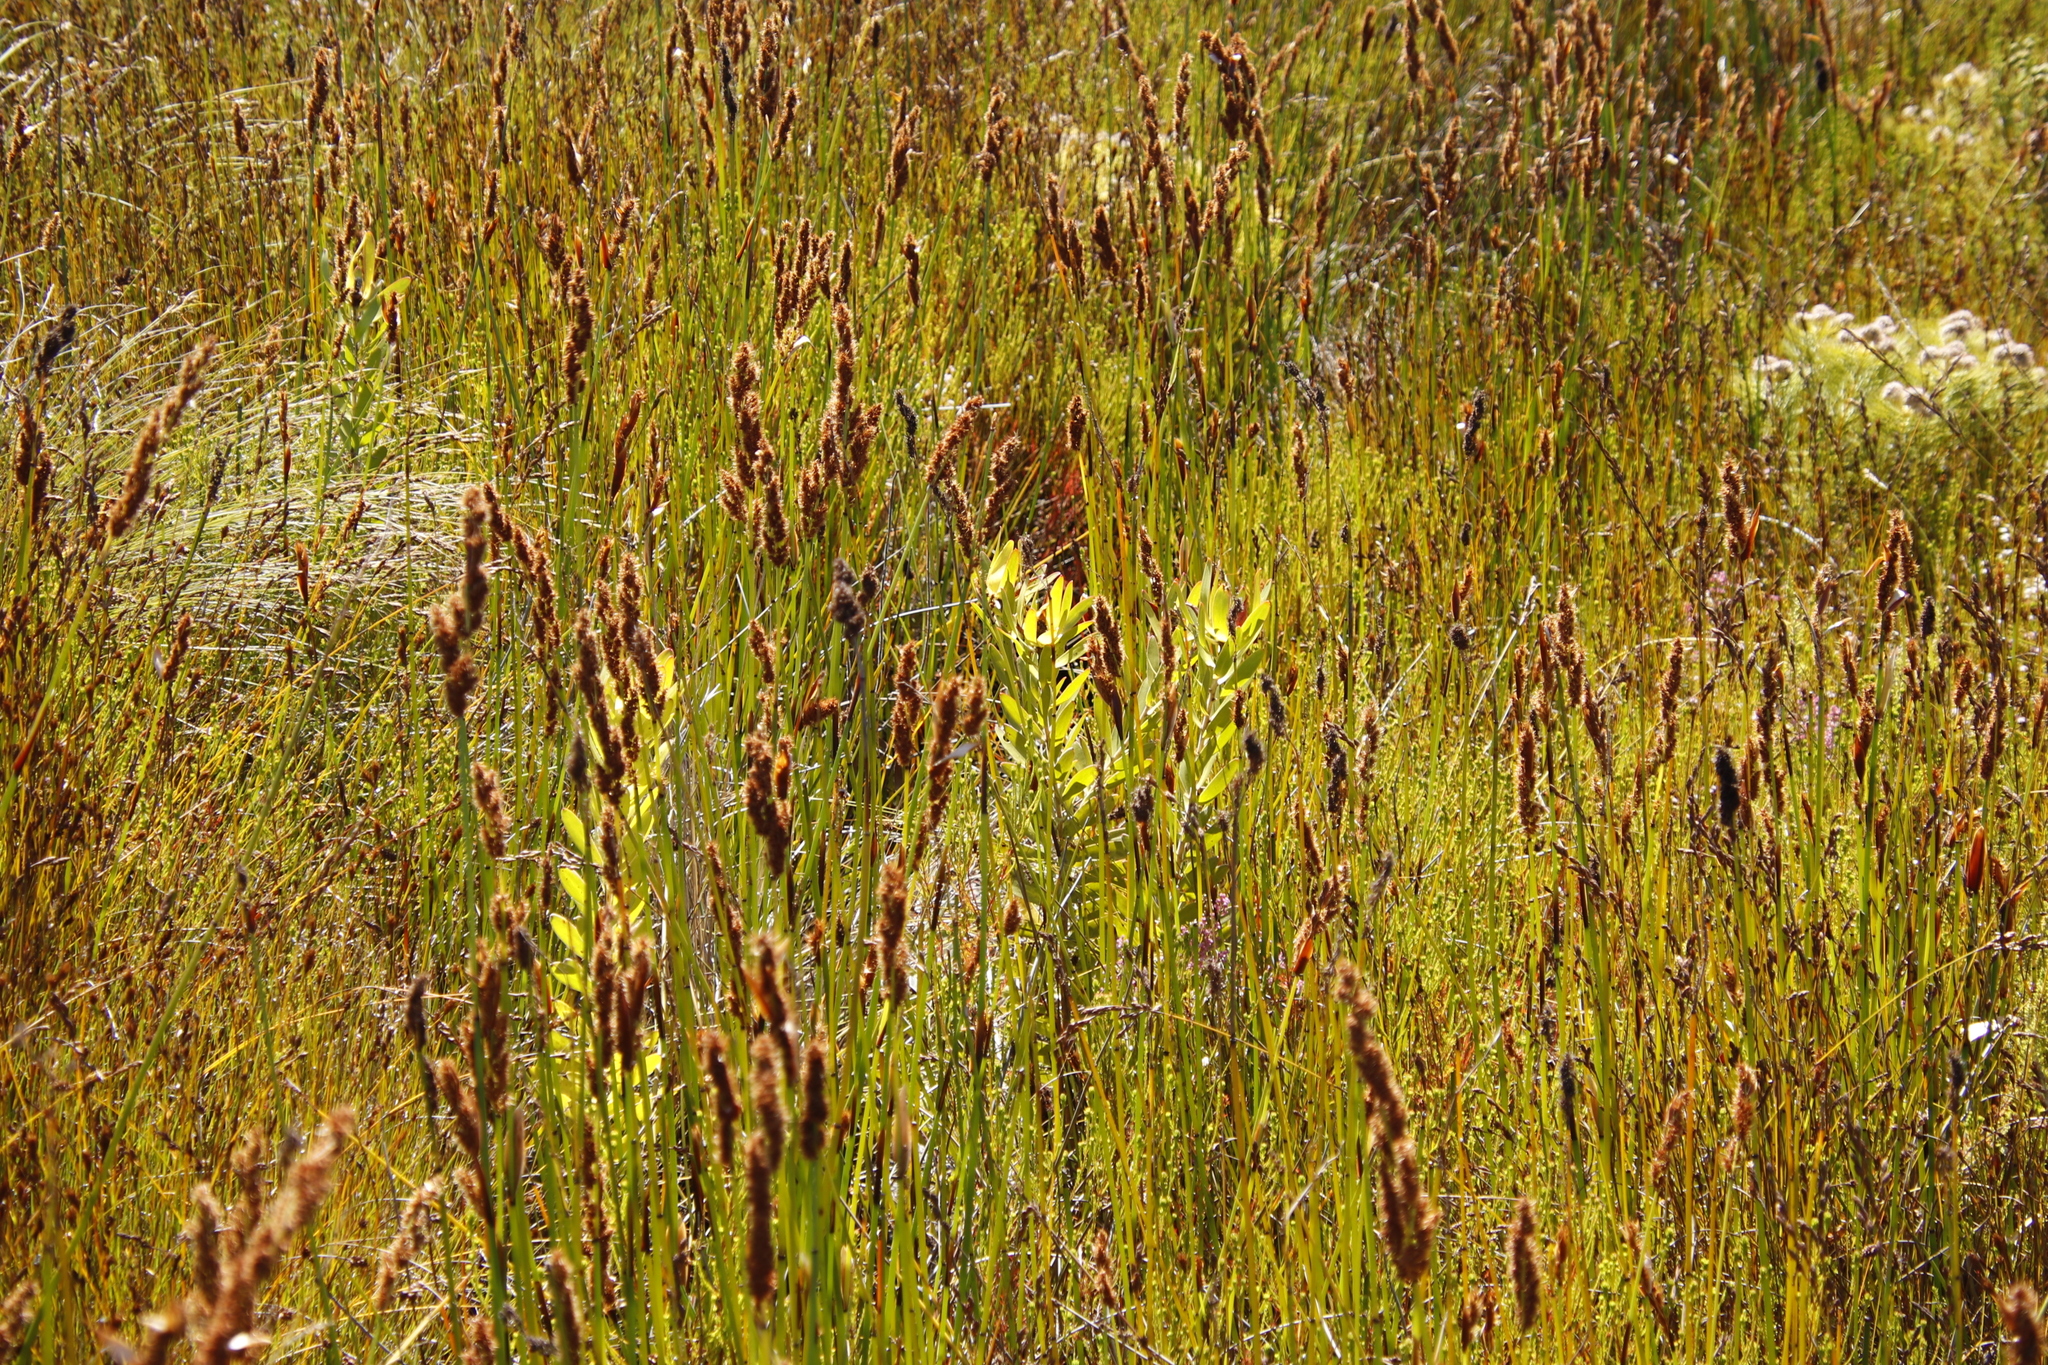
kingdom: Plantae
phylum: Tracheophyta
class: Magnoliopsida
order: Proteales
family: Proteaceae
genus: Leucadendron
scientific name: Leucadendron laureolum
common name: Golden sunshinebush
